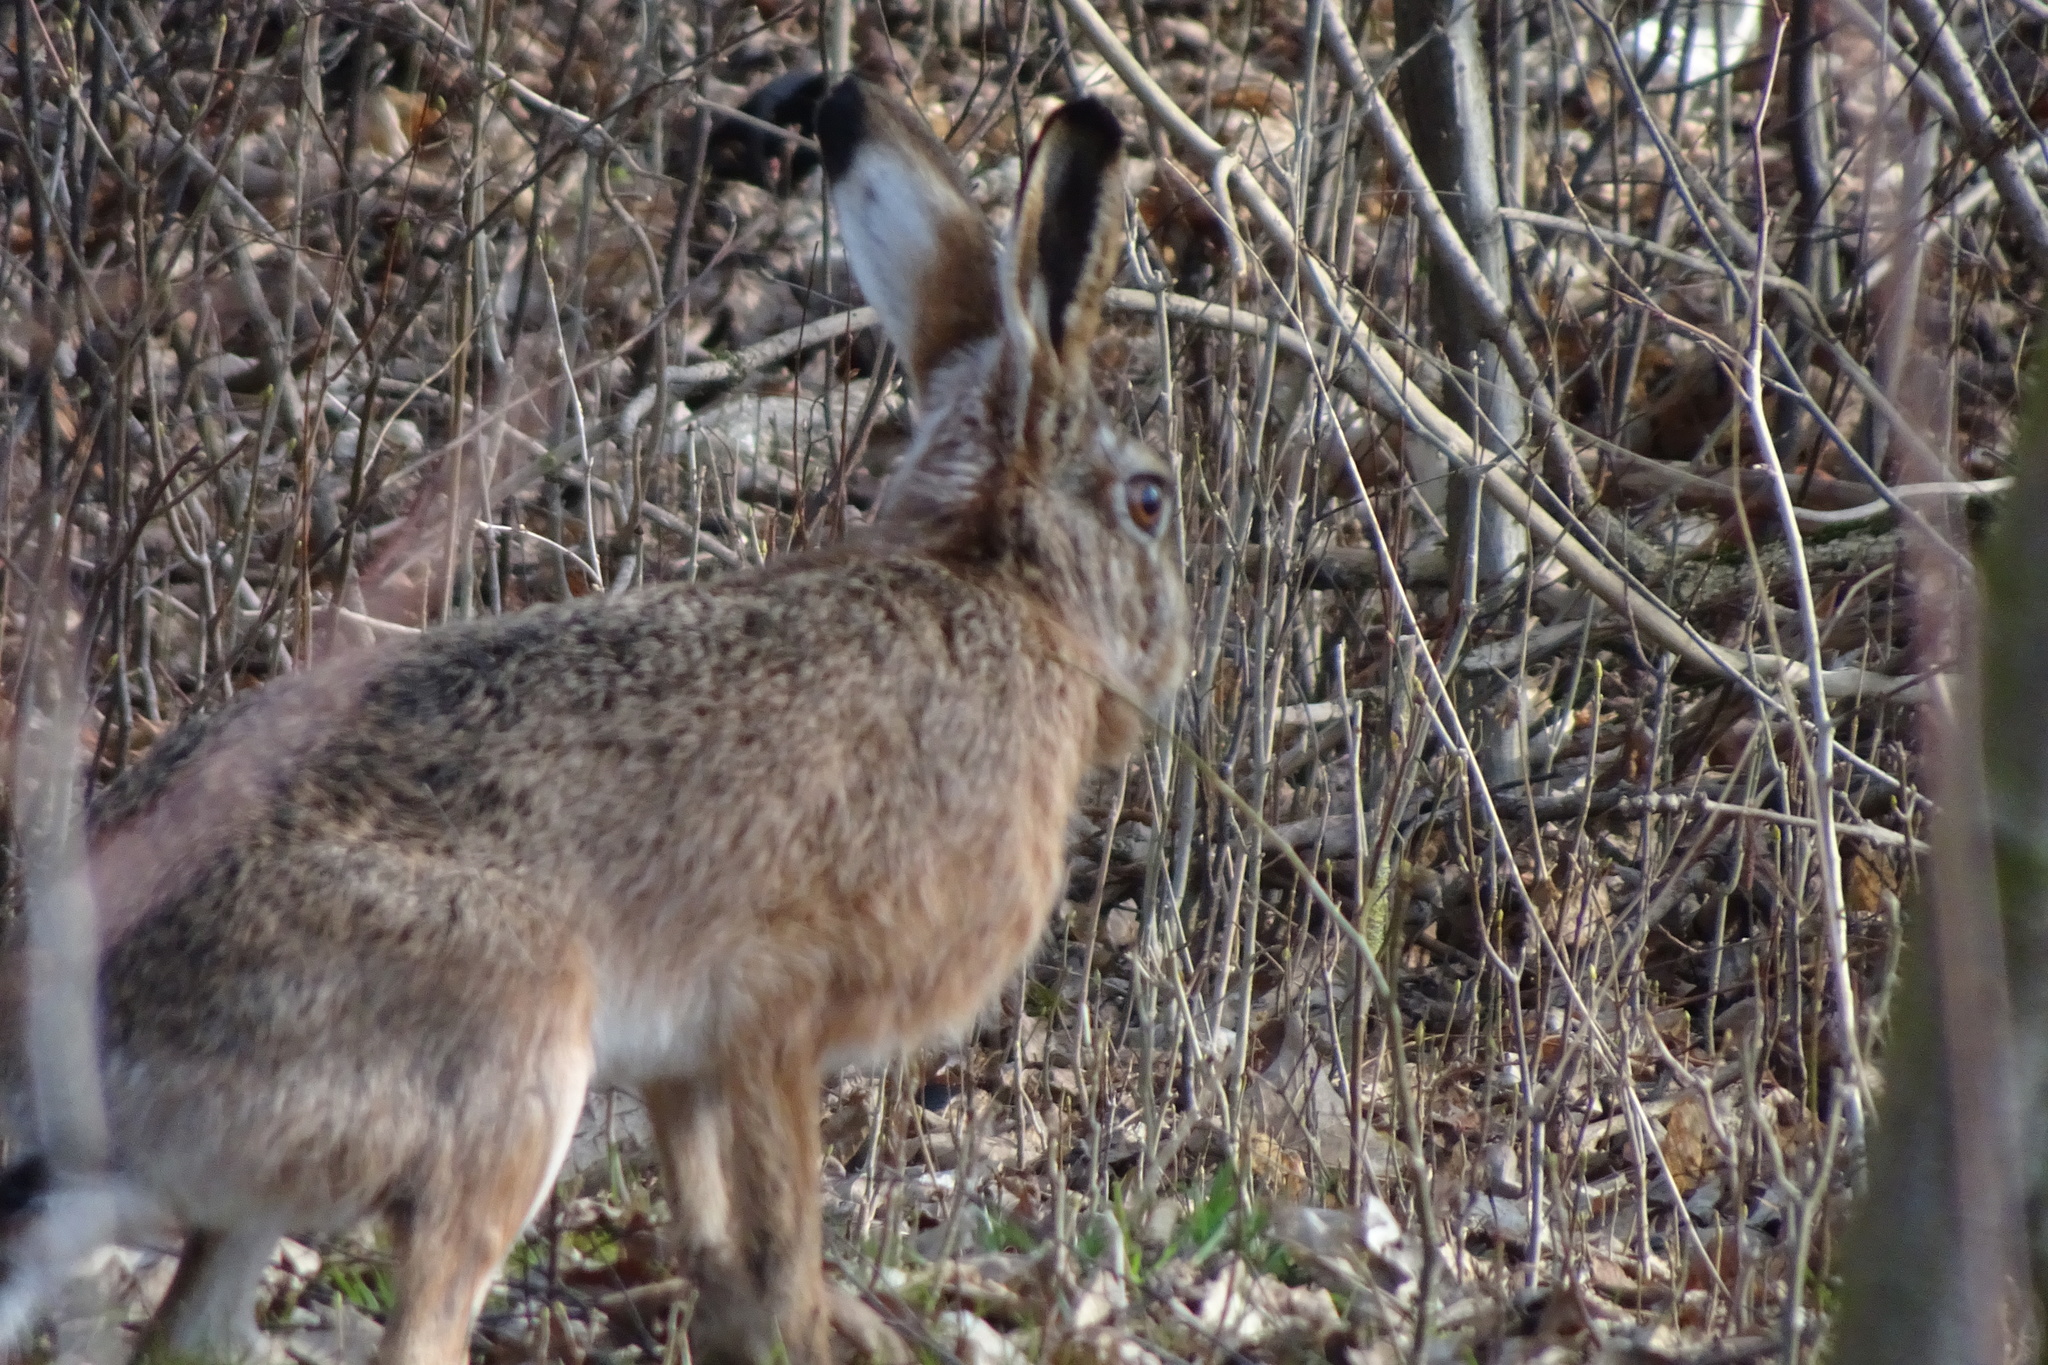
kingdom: Animalia
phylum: Chordata
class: Mammalia
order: Lagomorpha
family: Leporidae
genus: Lepus
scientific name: Lepus europaeus
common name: European hare
